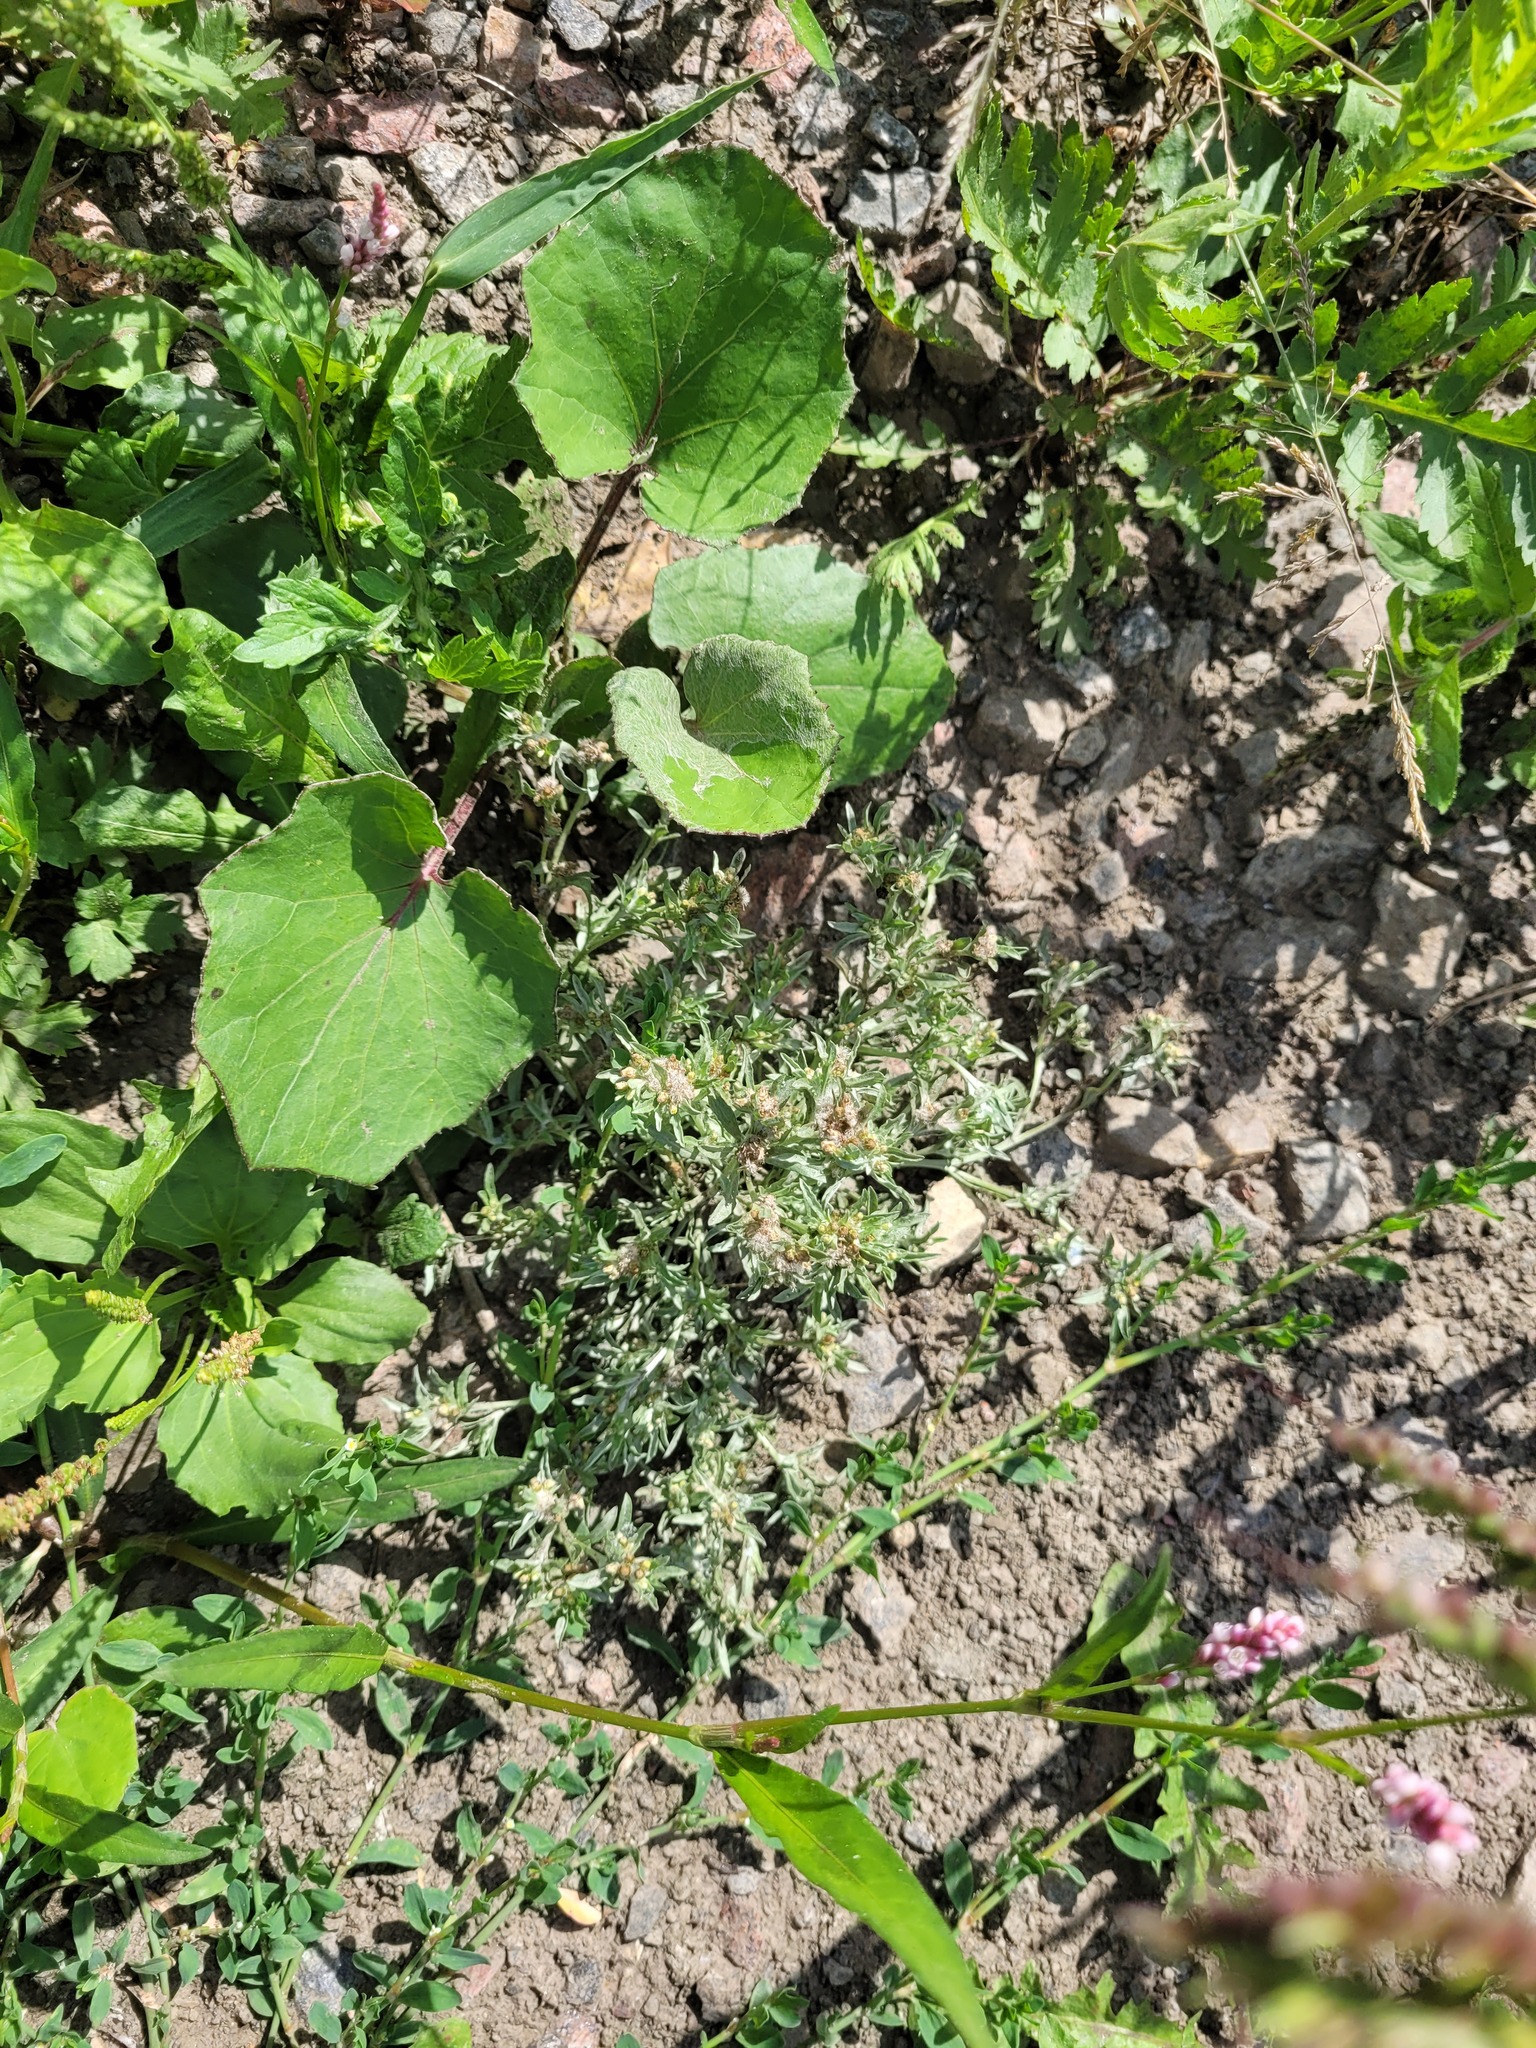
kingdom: Plantae
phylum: Tracheophyta
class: Magnoliopsida
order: Asterales
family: Asteraceae
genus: Gnaphalium
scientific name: Gnaphalium uliginosum
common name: Marsh cudweed
